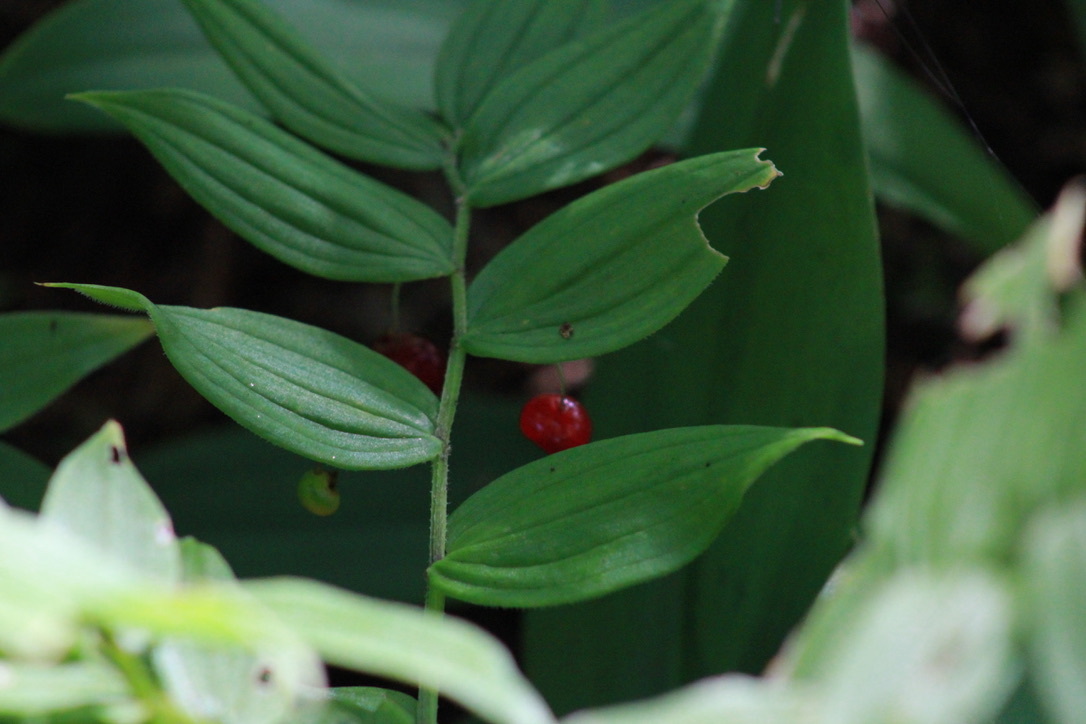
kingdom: Plantae
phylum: Tracheophyta
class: Liliopsida
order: Liliales
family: Liliaceae
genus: Streptopus
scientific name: Streptopus lanceolatus
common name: Rose mandarin
